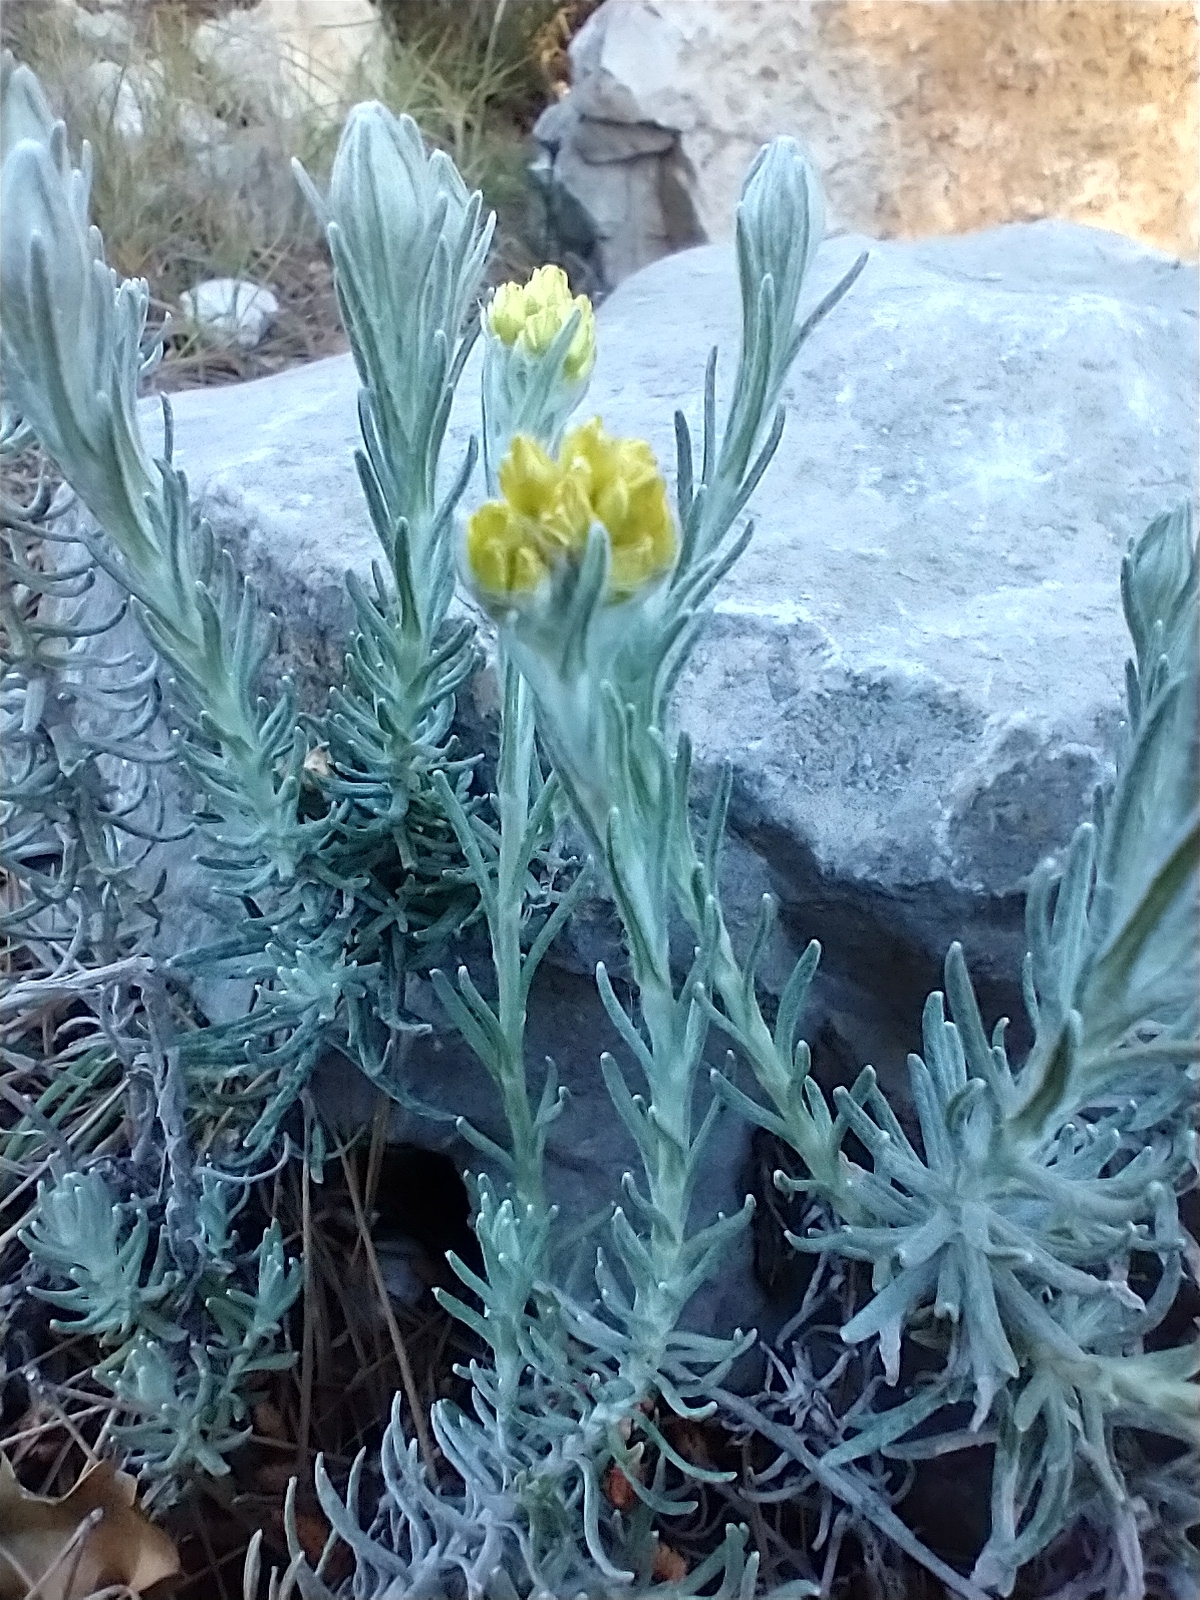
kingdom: Plantae
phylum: Tracheophyta
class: Magnoliopsida
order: Asterales
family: Asteraceae
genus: Helichrysum
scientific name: Helichrysum stoechas
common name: Goldilocks
